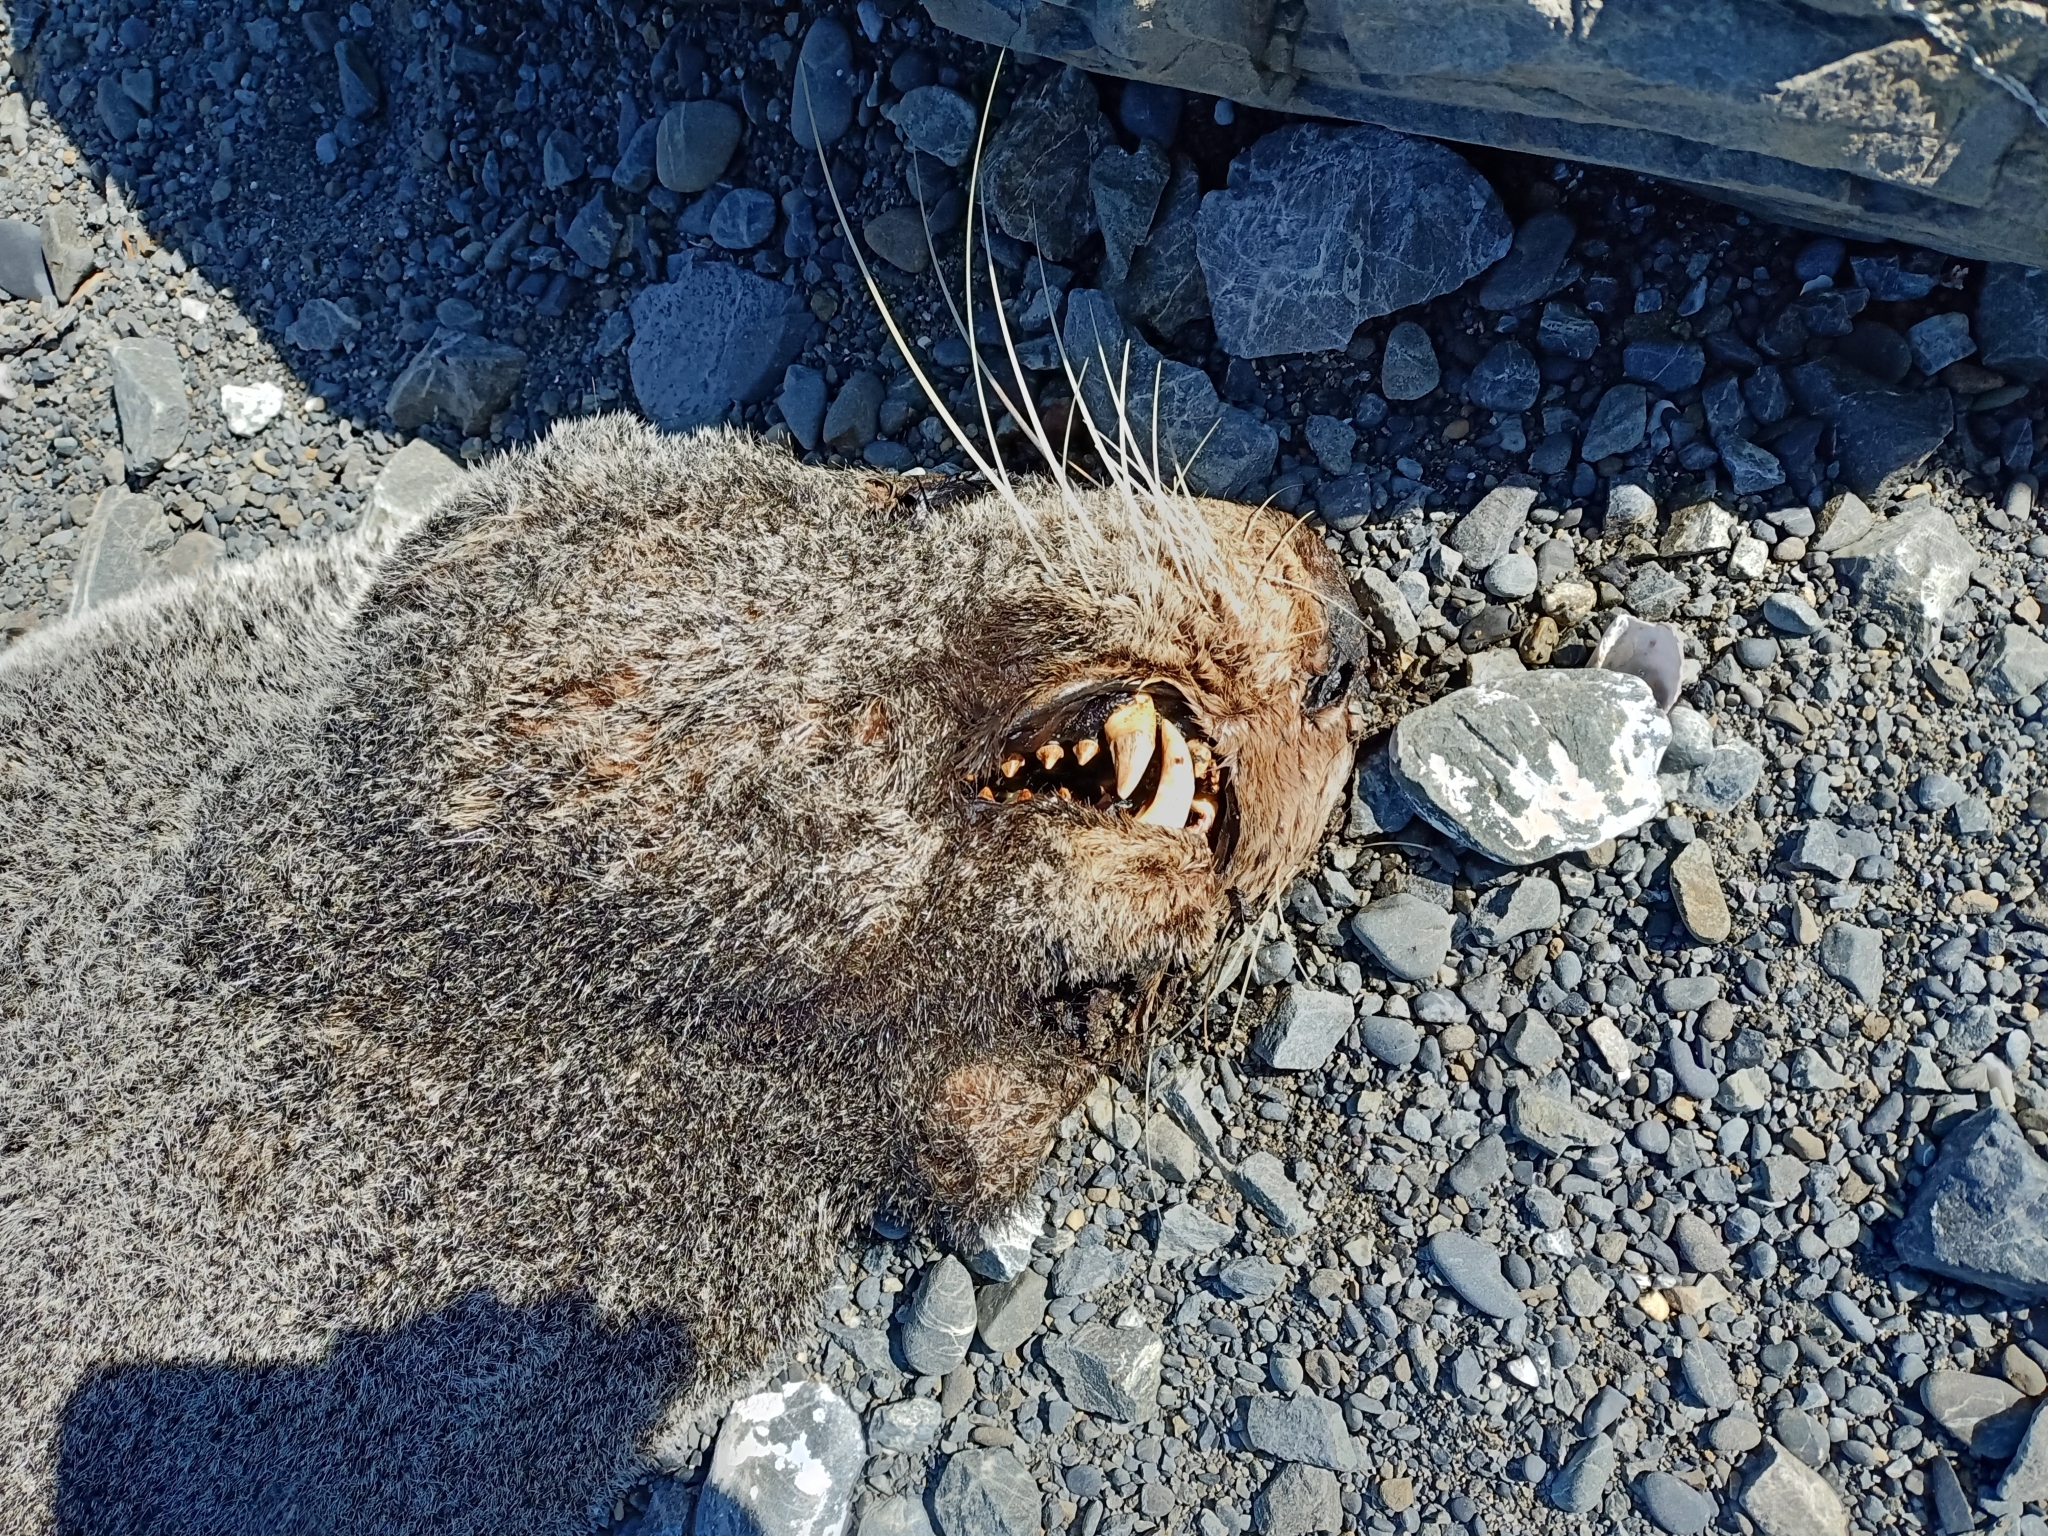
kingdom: Animalia
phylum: Chordata
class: Mammalia
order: Carnivora
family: Otariidae
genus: Arctocephalus
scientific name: Arctocephalus forsteri
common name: New zealand fur seal
